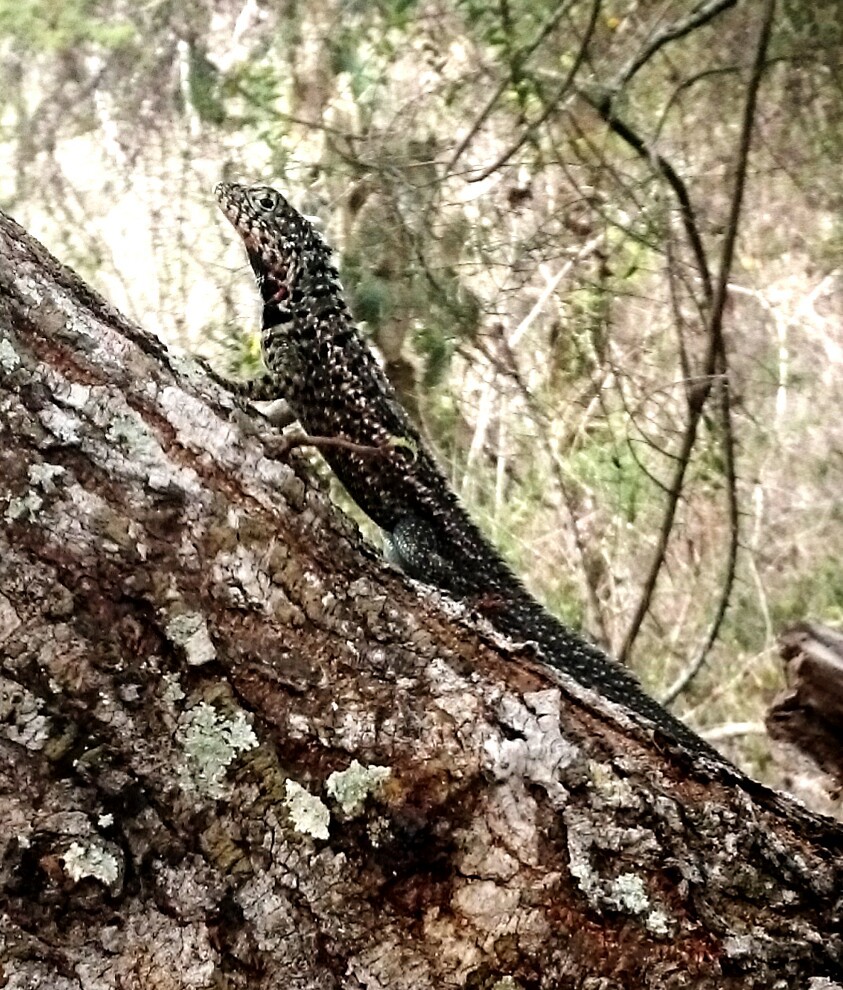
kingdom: Animalia
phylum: Chordata
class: Squamata
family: Tropiduridae
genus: Microlophus
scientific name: Microlophus indefatigabilis
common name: Galapagos lava lizard
